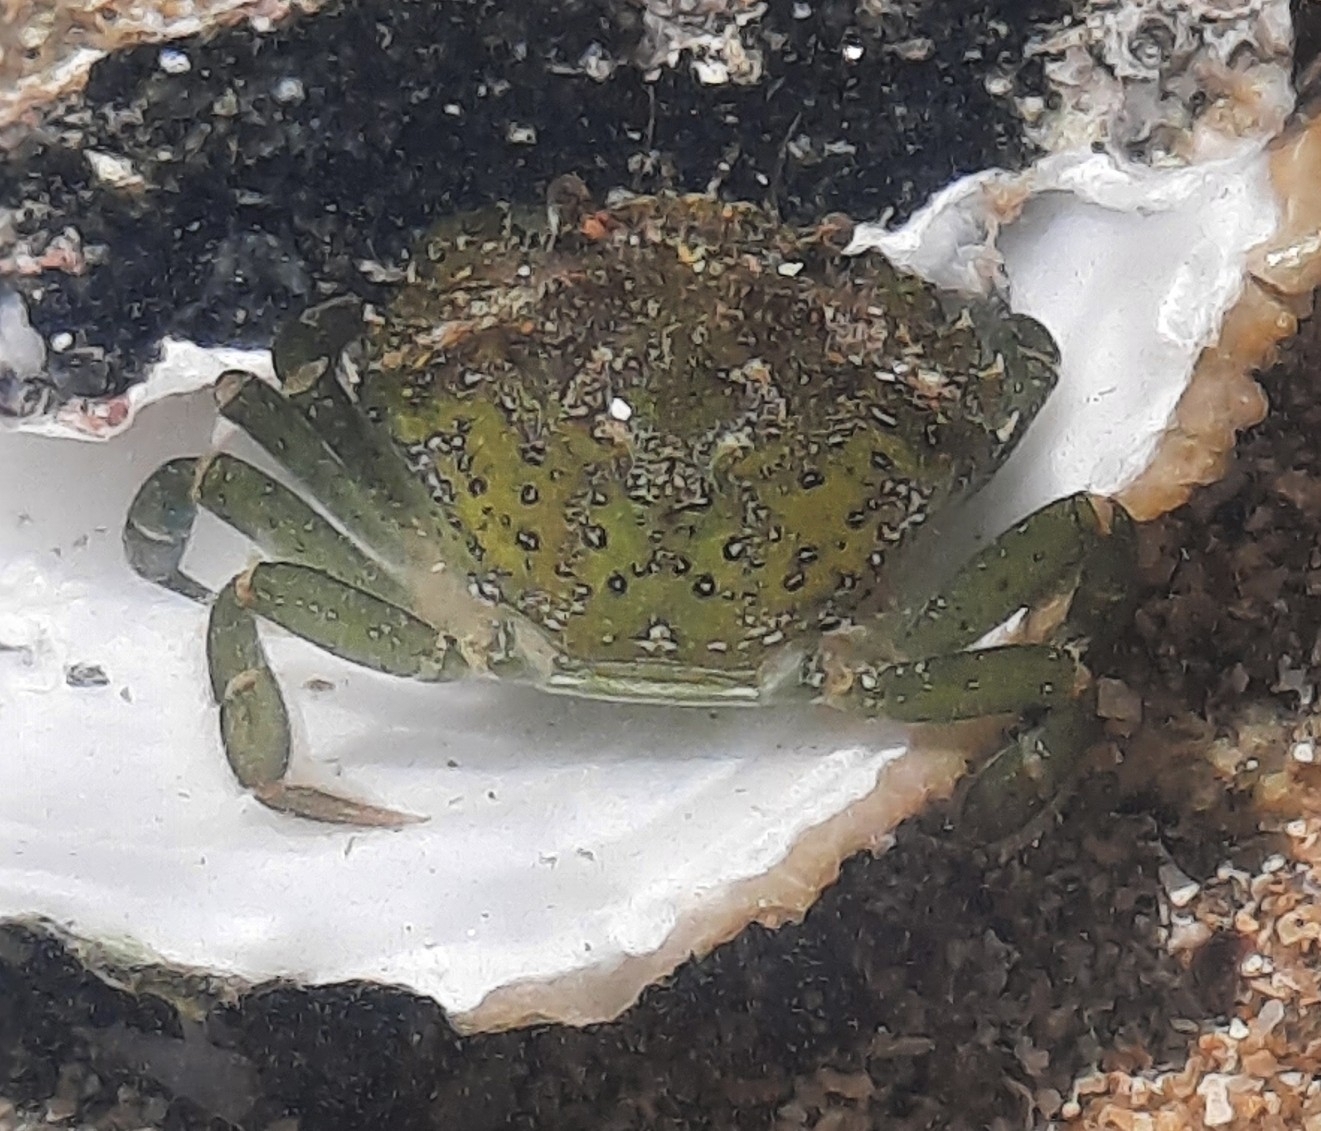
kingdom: Animalia
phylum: Arthropoda
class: Malacostraca
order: Decapoda
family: Carcinidae
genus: Carcinus
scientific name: Carcinus maenas
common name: European green crab
